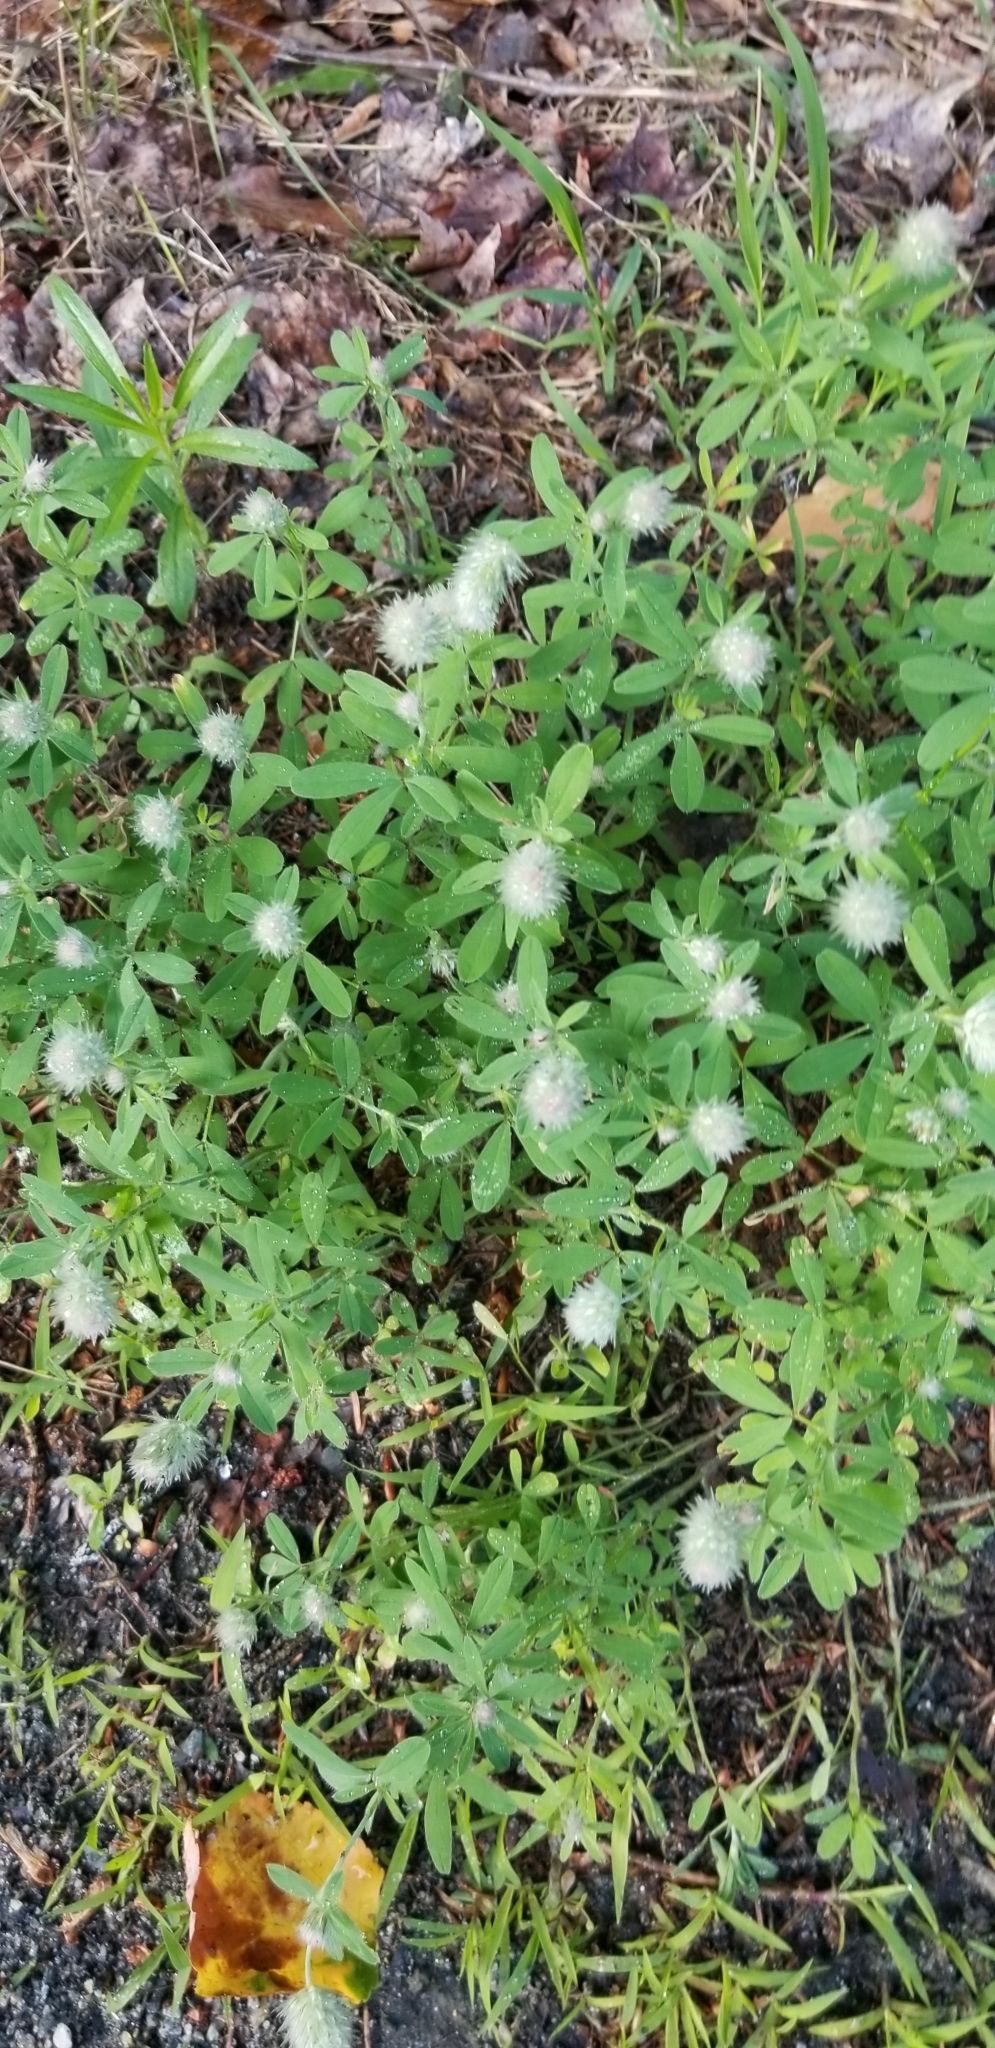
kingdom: Plantae
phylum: Tracheophyta
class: Magnoliopsida
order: Fabales
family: Fabaceae
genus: Trifolium
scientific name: Trifolium arvense
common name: Hare's-foot clover
